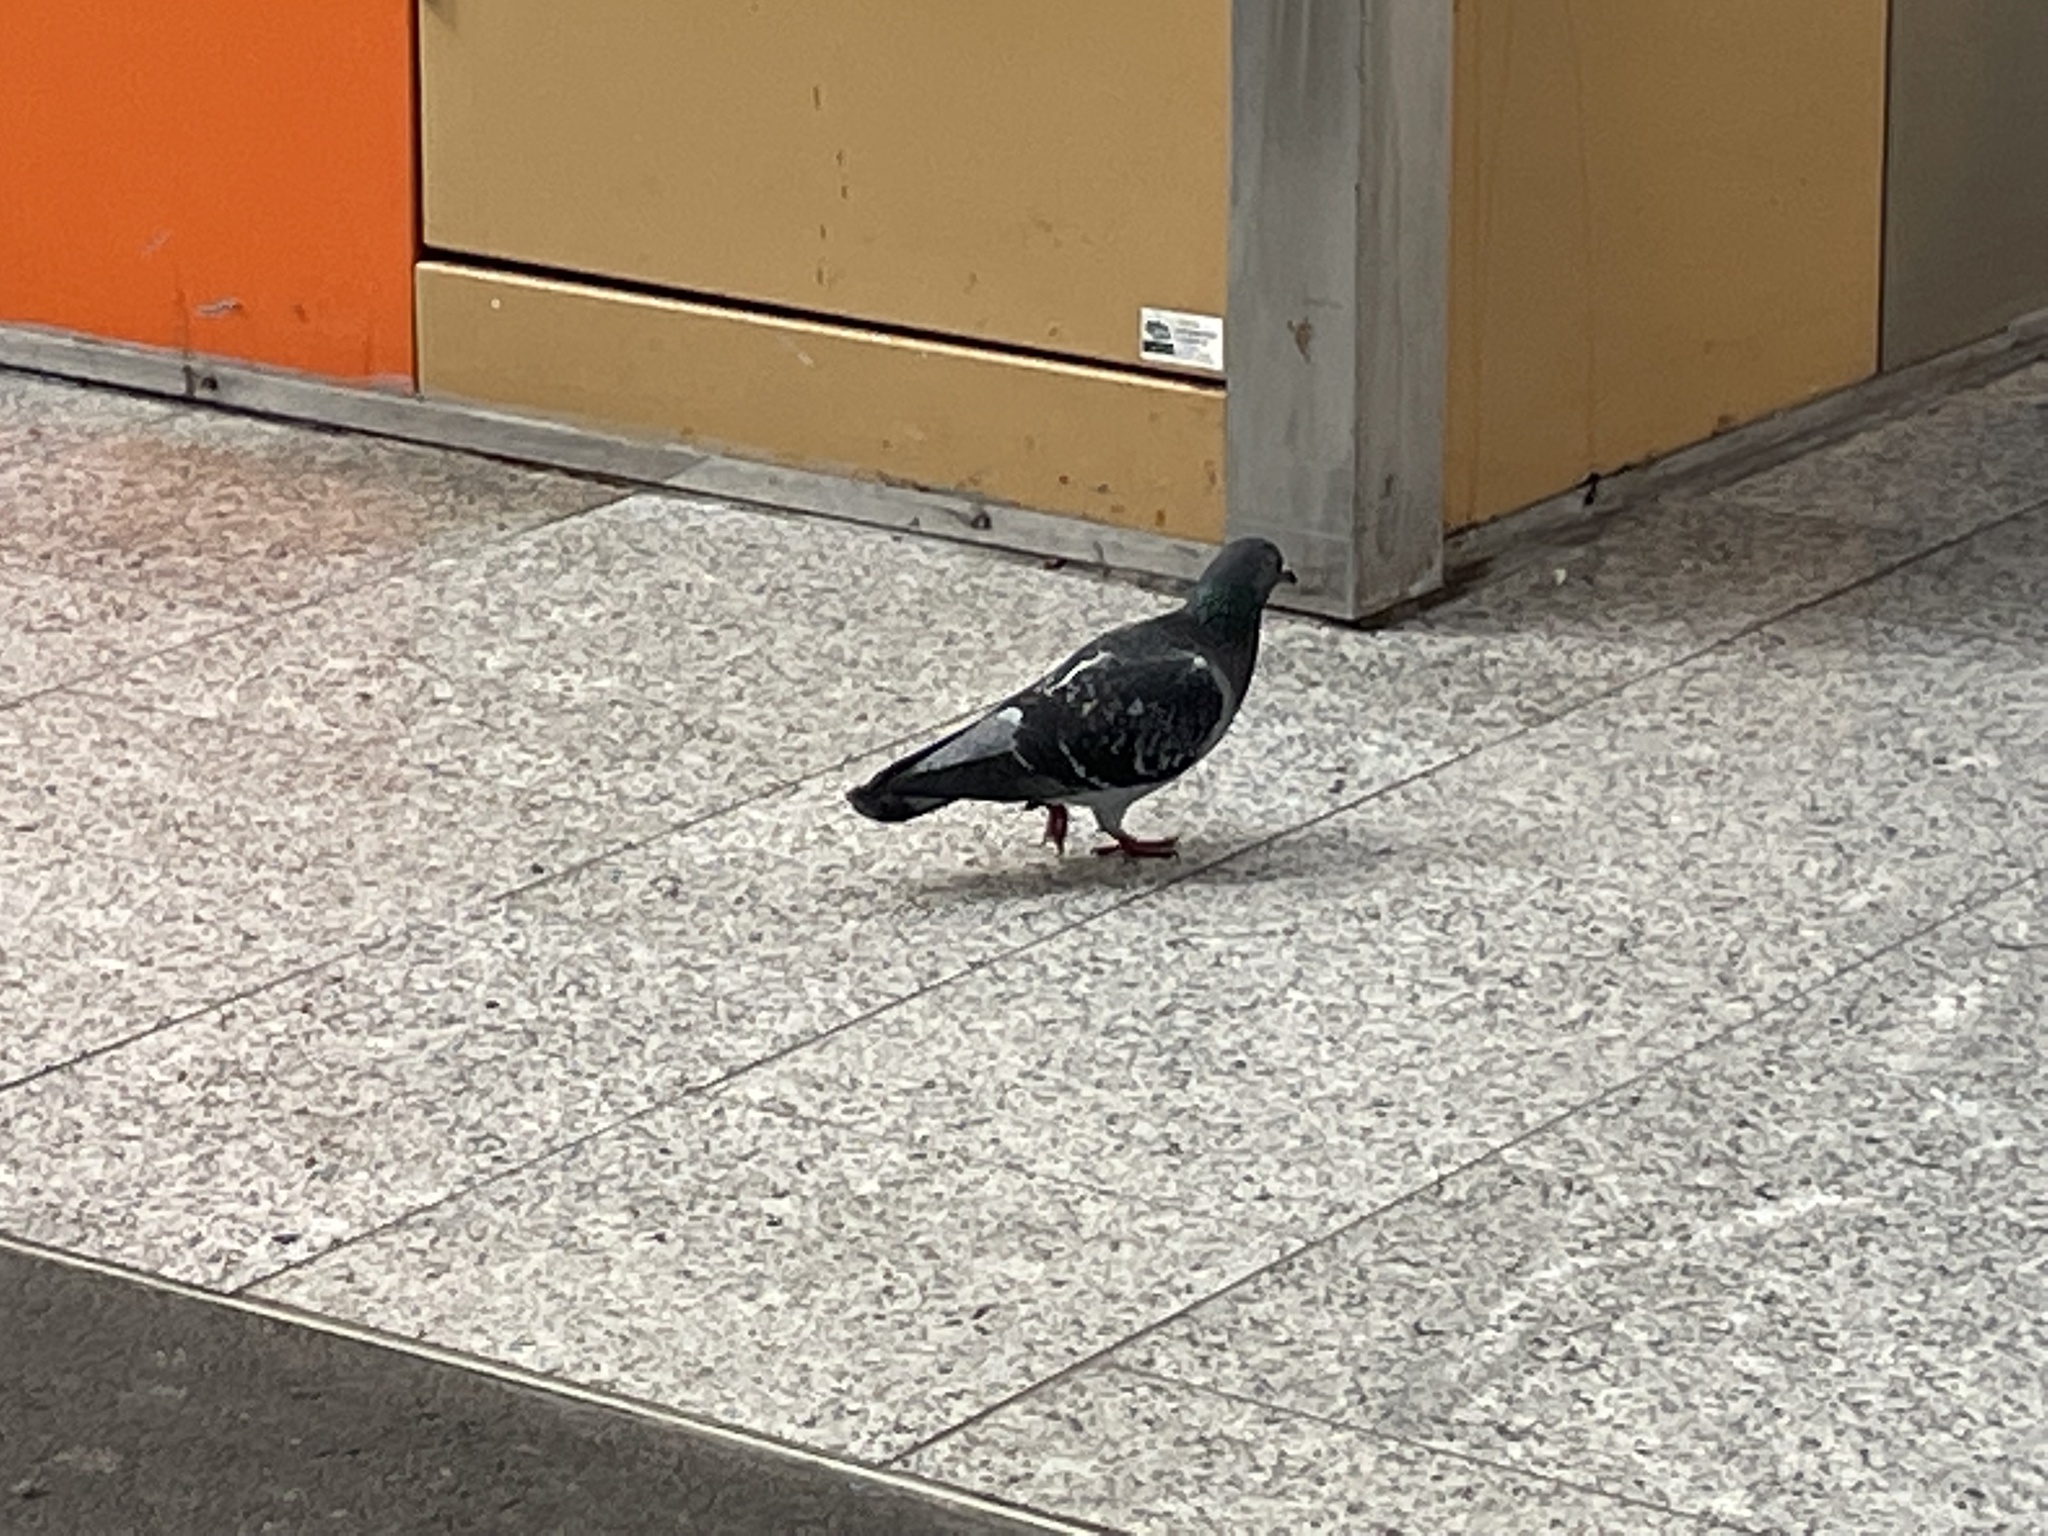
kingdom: Animalia
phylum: Chordata
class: Aves
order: Columbiformes
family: Columbidae
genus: Columba
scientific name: Columba livia
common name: Rock pigeon
